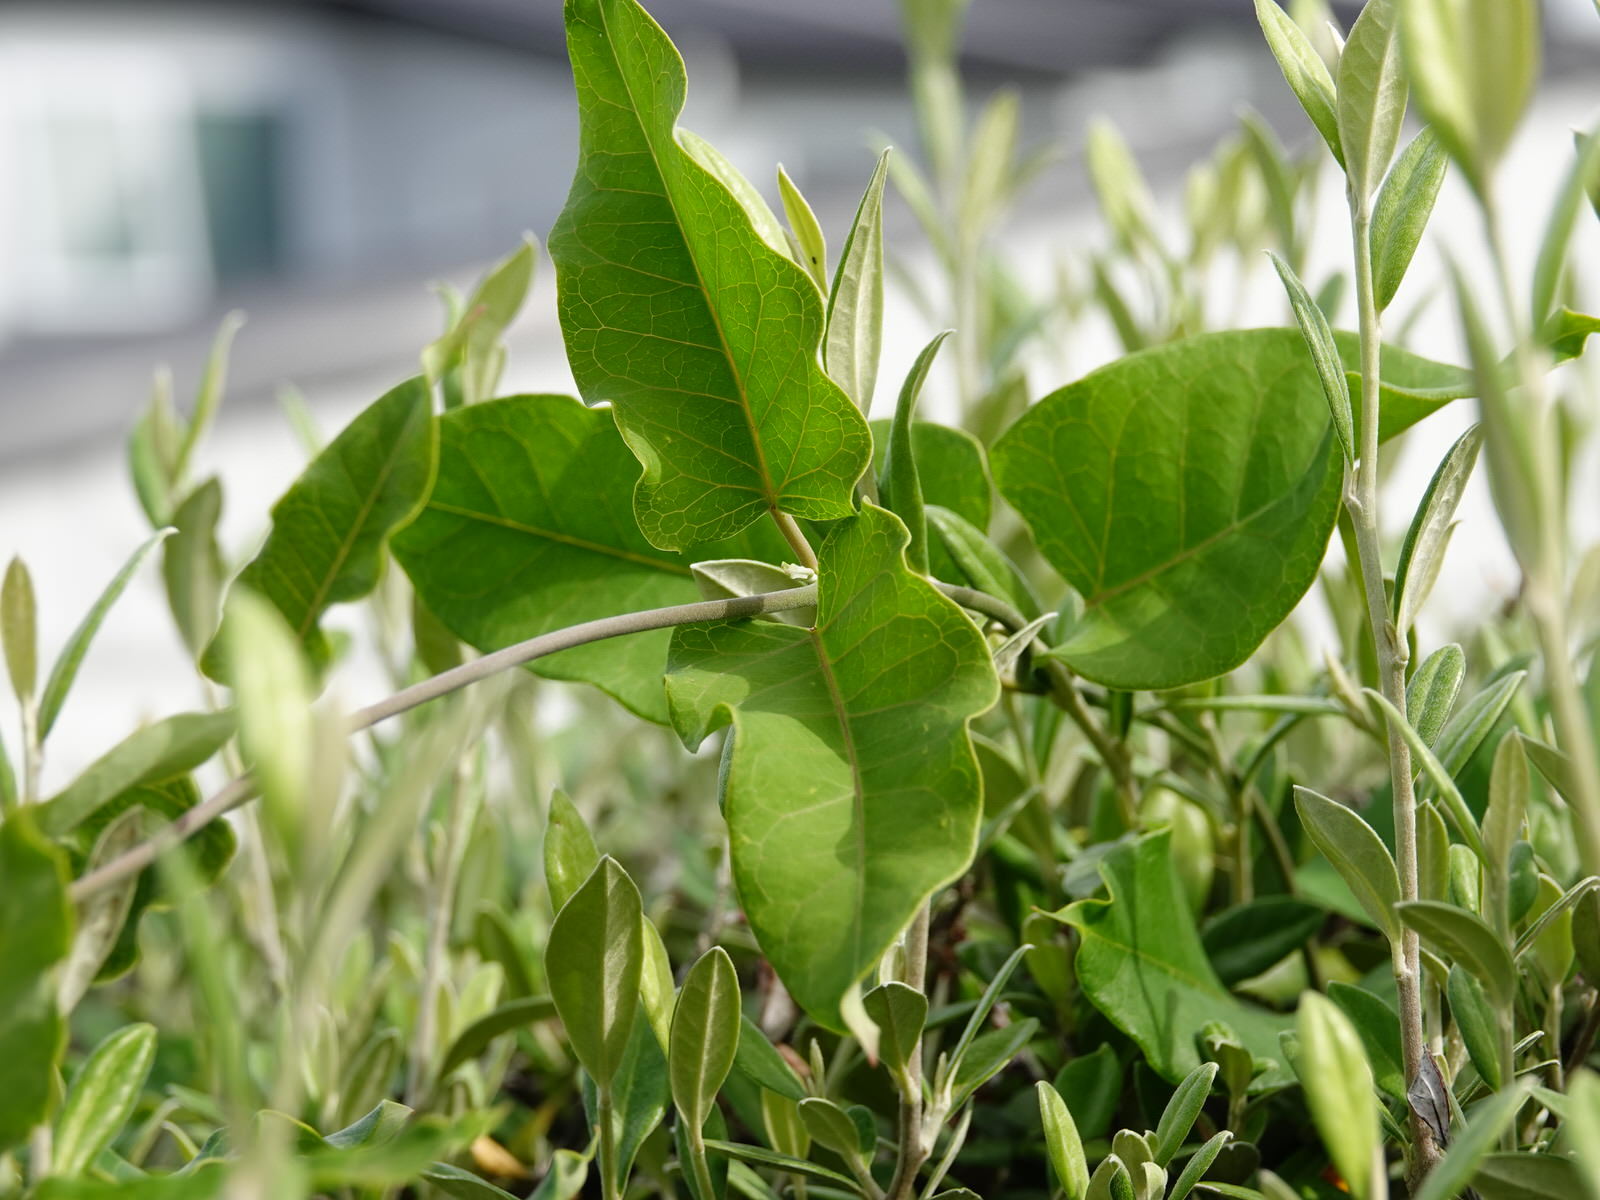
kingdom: Plantae
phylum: Tracheophyta
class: Magnoliopsida
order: Gentianales
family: Apocynaceae
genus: Araujia
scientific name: Araujia sericifera
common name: White bladderflower
